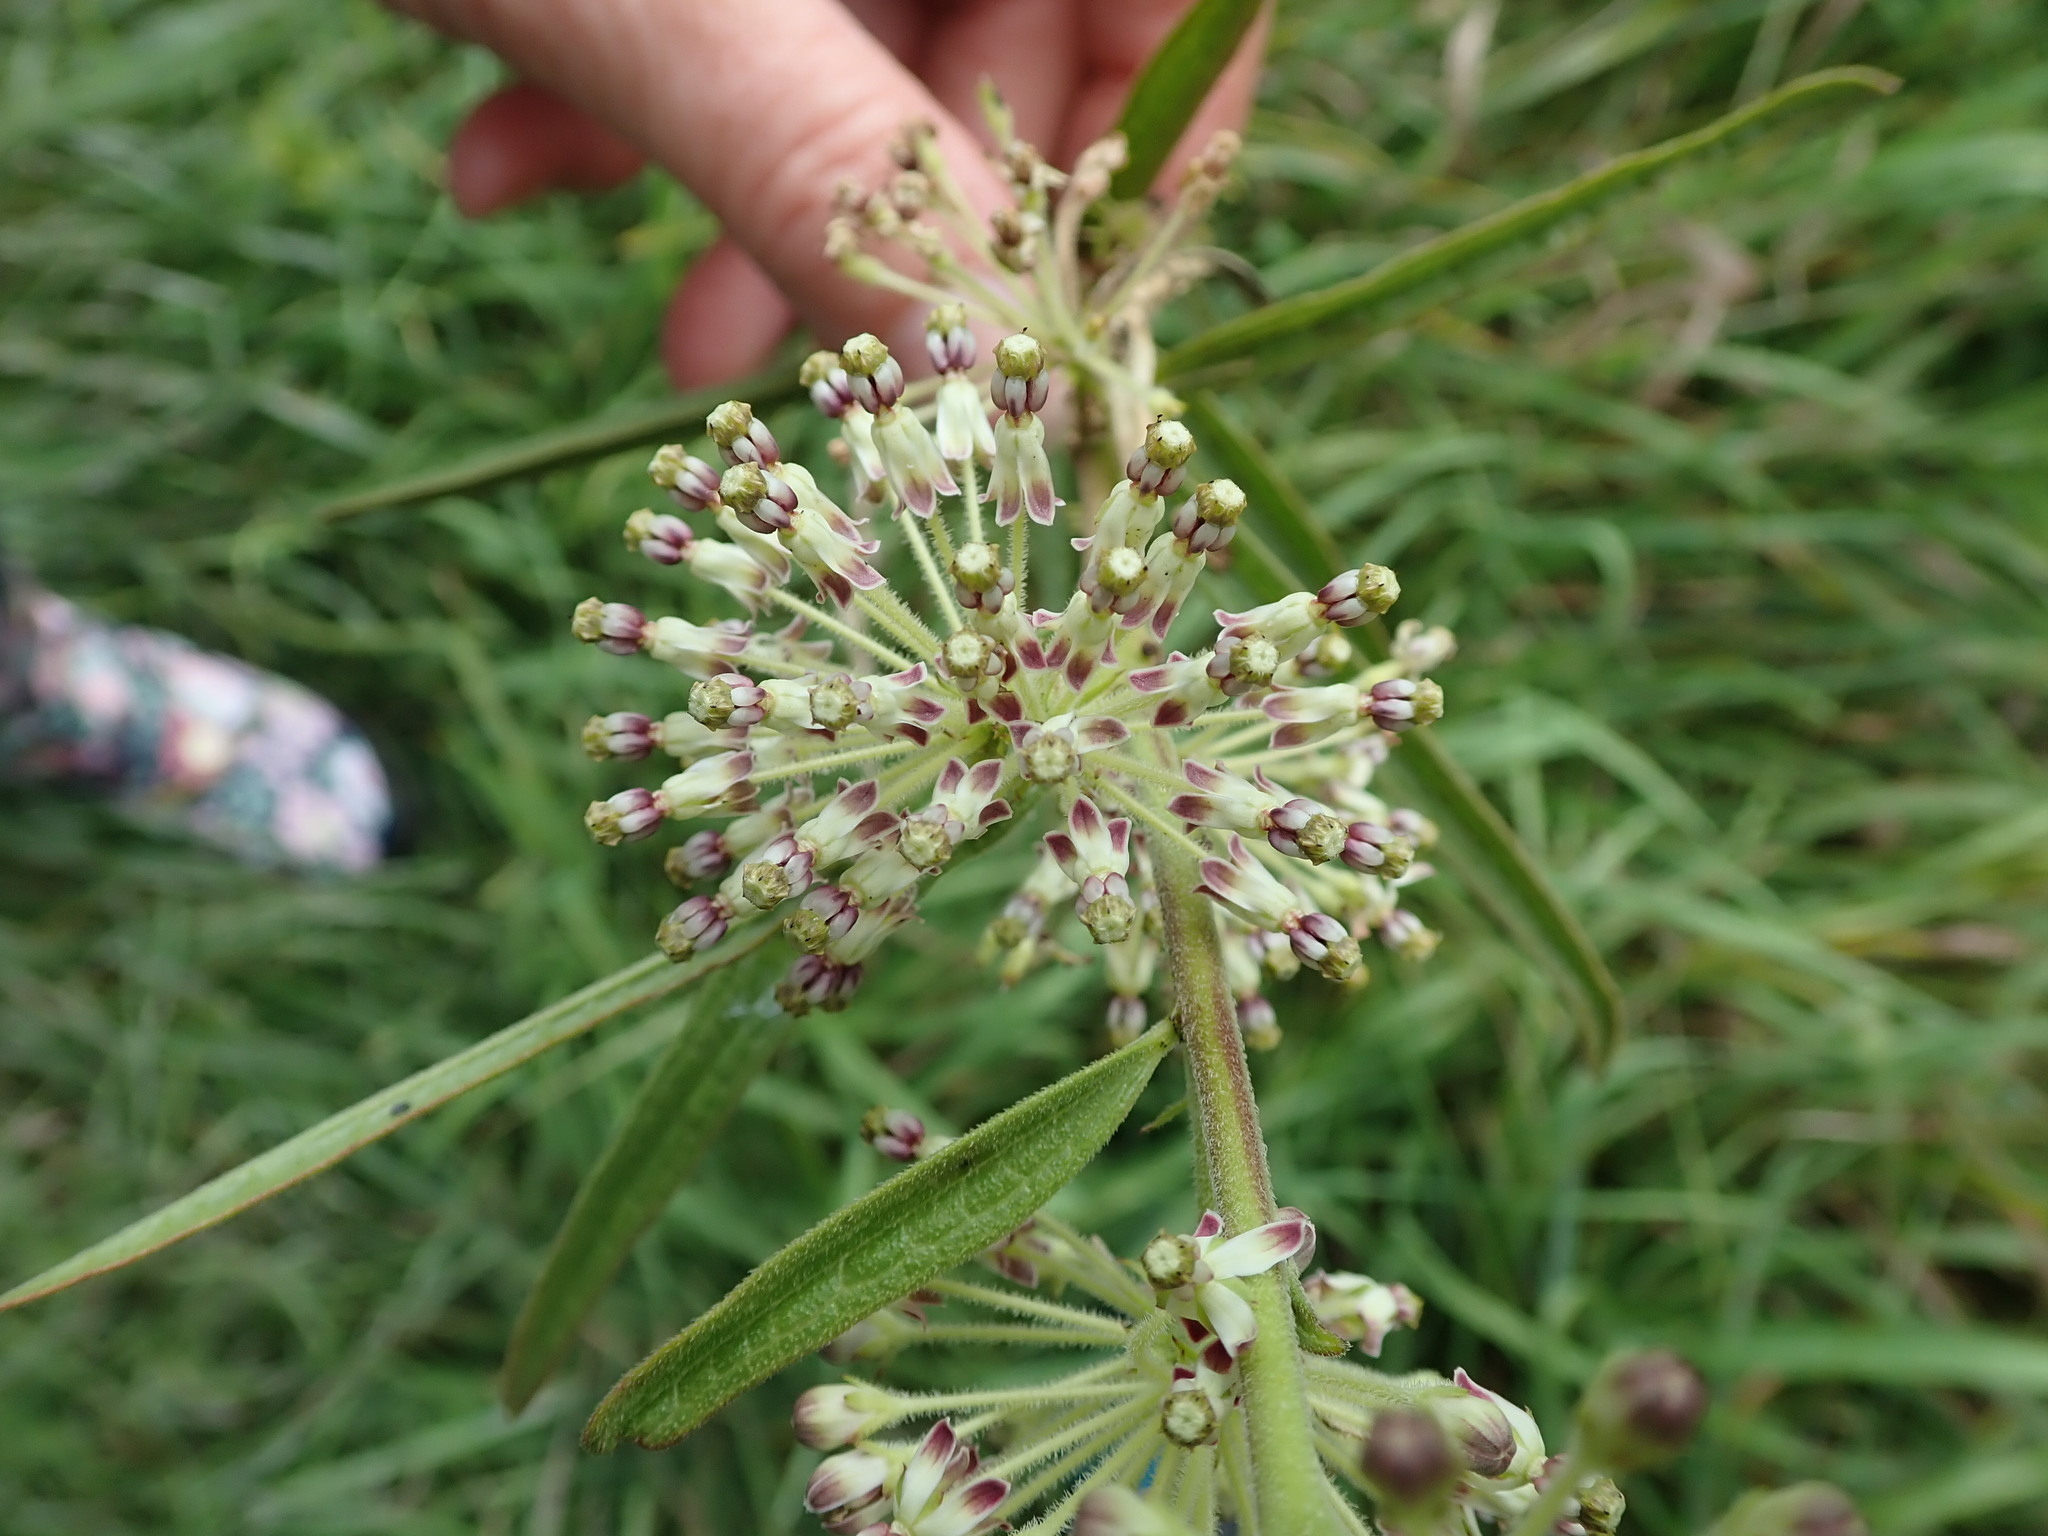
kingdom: Plantae
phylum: Tracheophyta
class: Magnoliopsida
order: Gentianales
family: Apocynaceae
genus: Asclepias
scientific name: Asclepias hirtella
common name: Prairie milkweed
